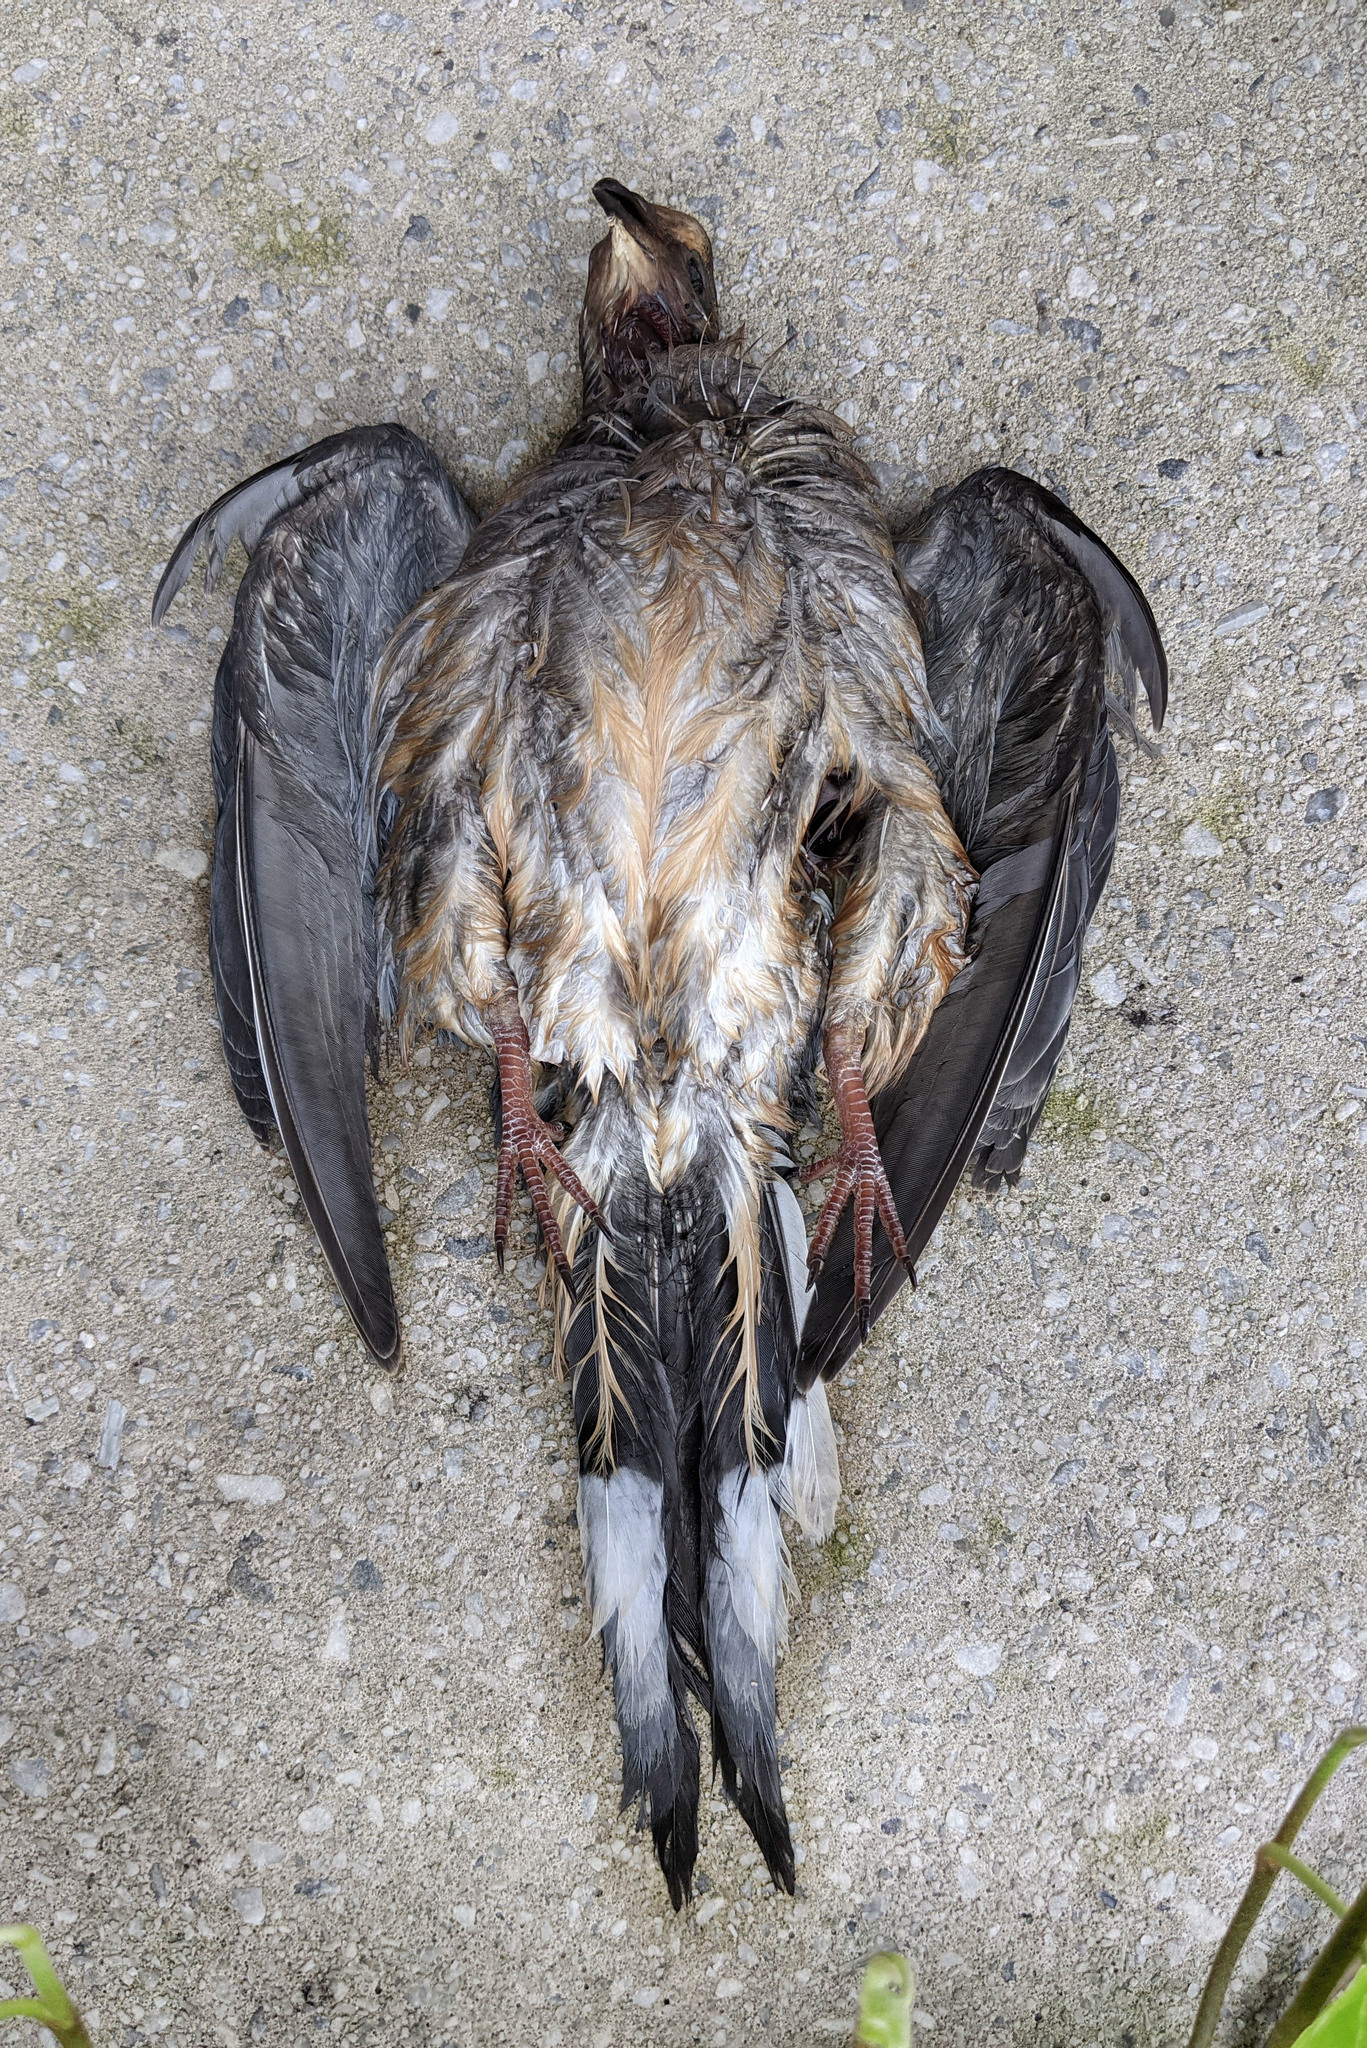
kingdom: Animalia
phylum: Chordata
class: Aves
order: Columbiformes
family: Columbidae
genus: Zenaida
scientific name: Zenaida macroura
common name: Mourning dove
